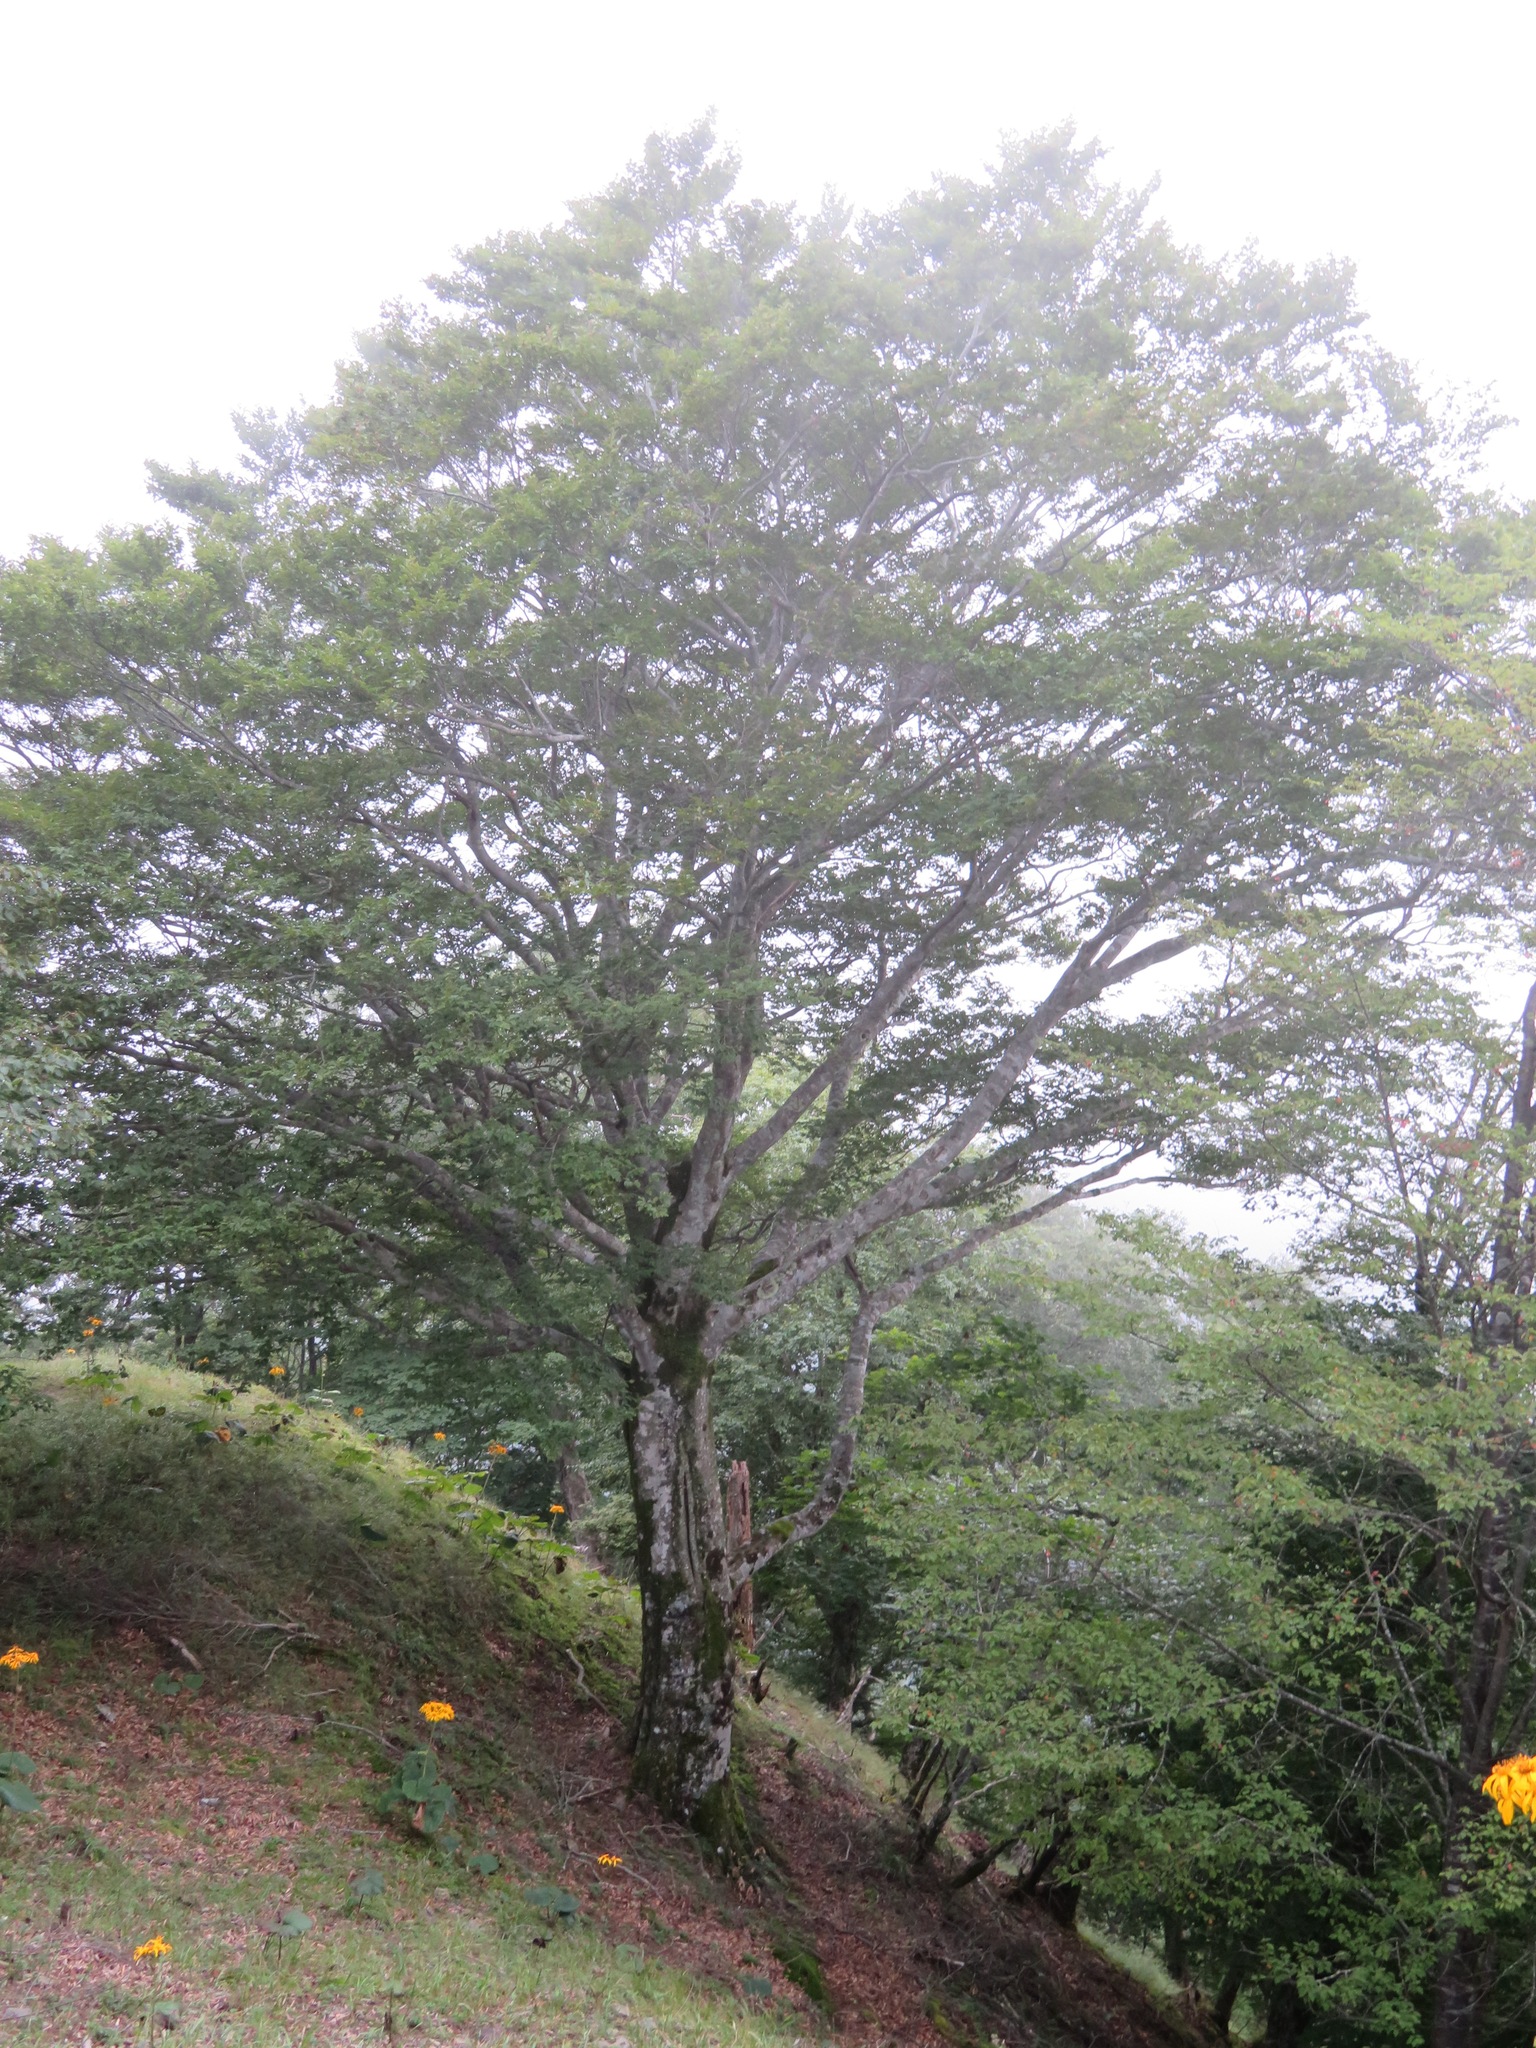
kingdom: Plantae
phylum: Tracheophyta
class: Magnoliopsida
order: Fagales
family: Fagaceae
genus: Fagus
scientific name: Fagus crenata
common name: Japanese beech
